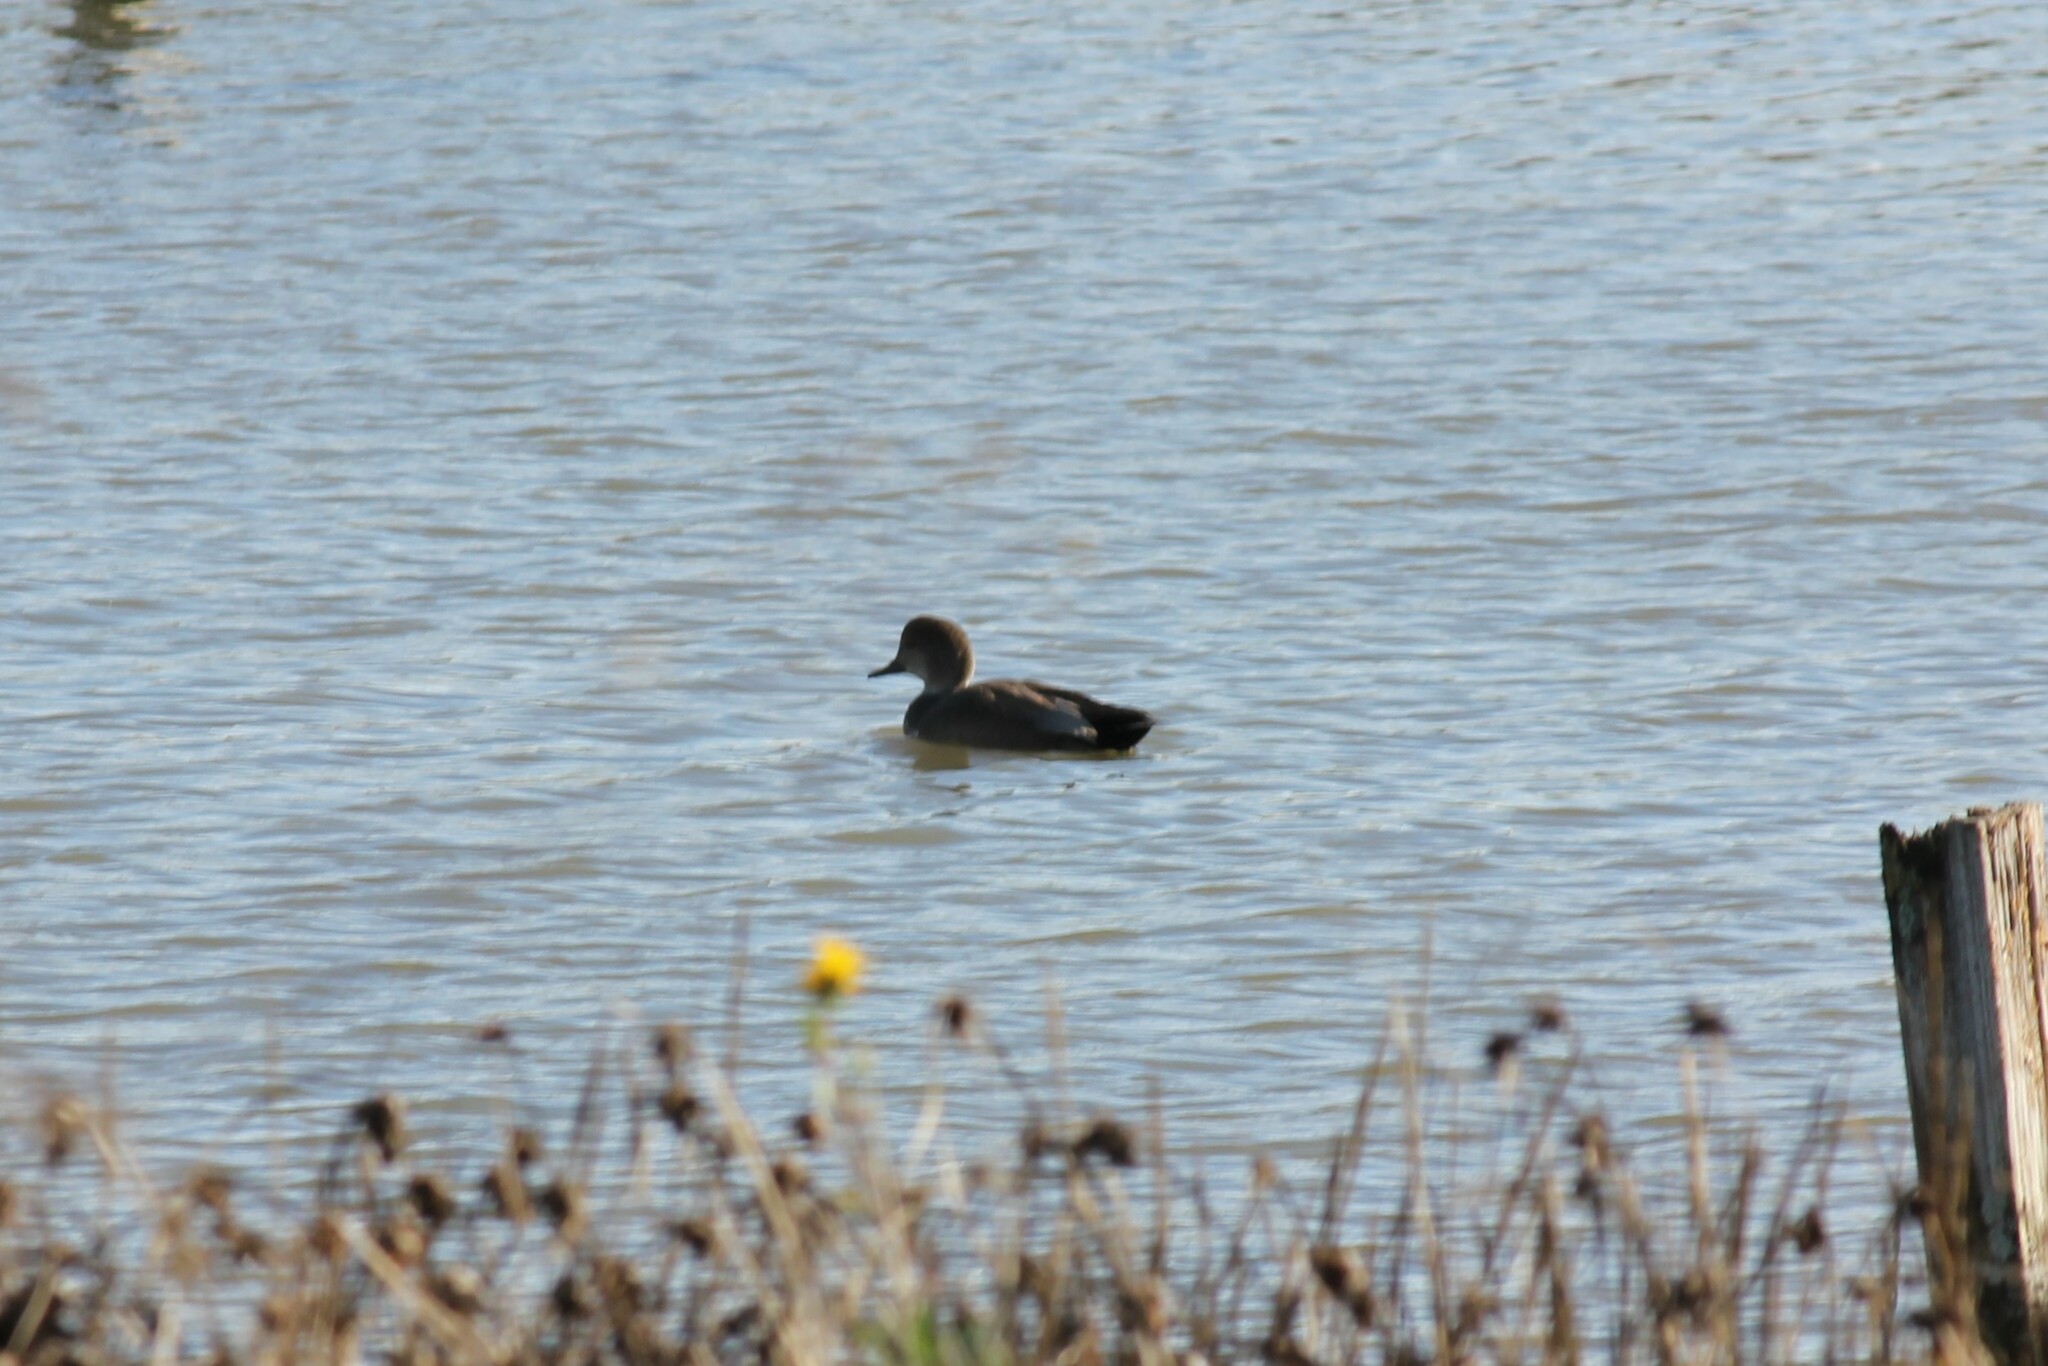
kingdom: Animalia
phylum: Chordata
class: Aves
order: Anseriformes
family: Anatidae
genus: Mareca
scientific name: Mareca strepera
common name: Gadwall
